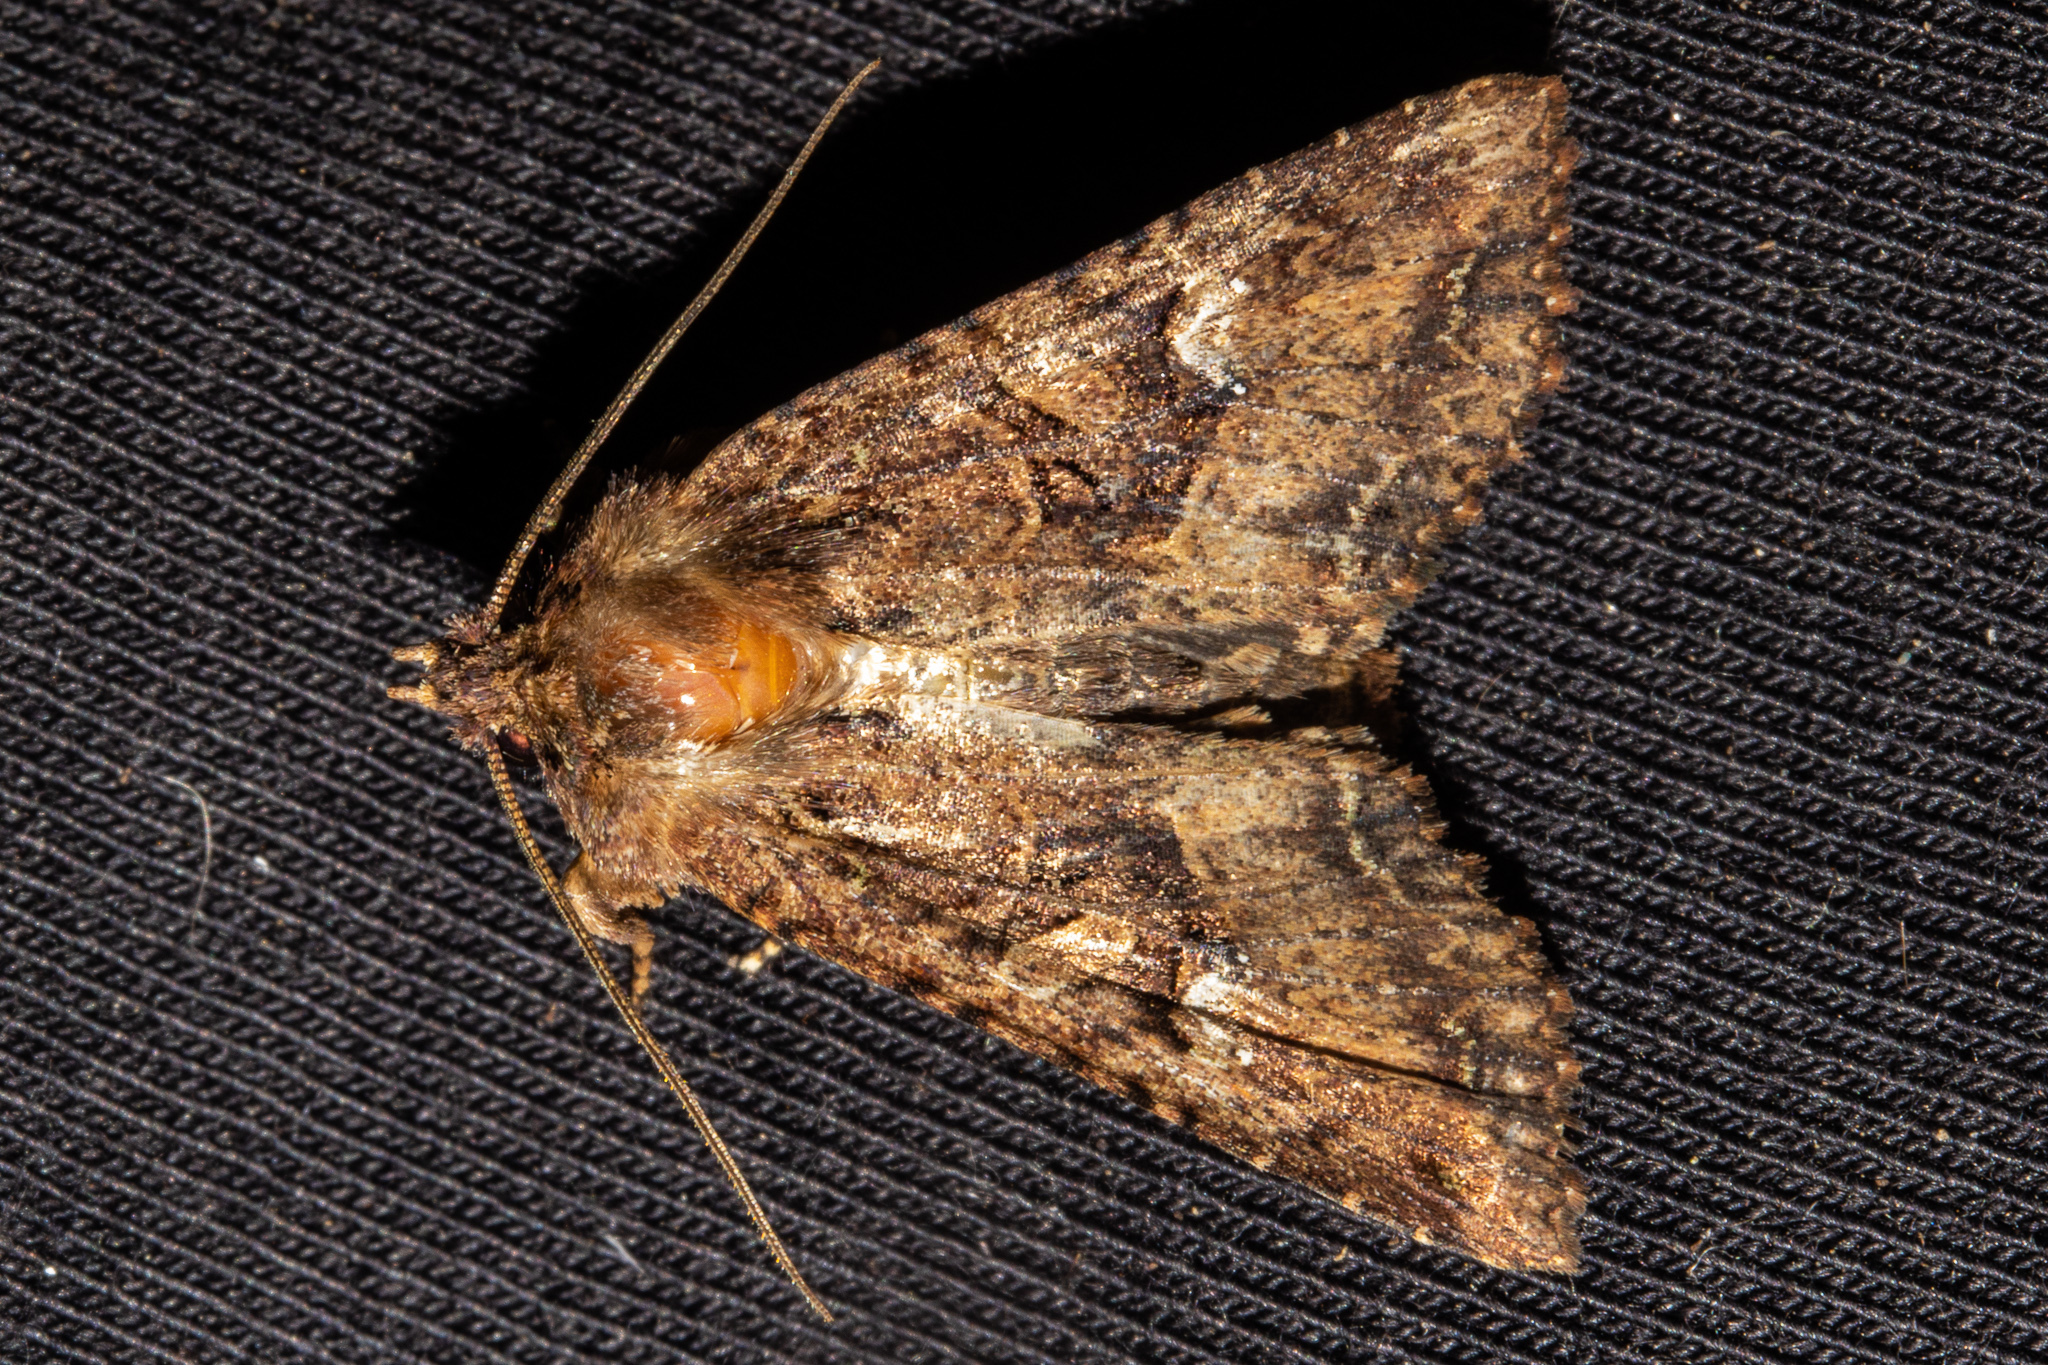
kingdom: Animalia
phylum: Arthropoda
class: Insecta
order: Lepidoptera
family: Noctuidae
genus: Meterana
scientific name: Meterana ochthistis
